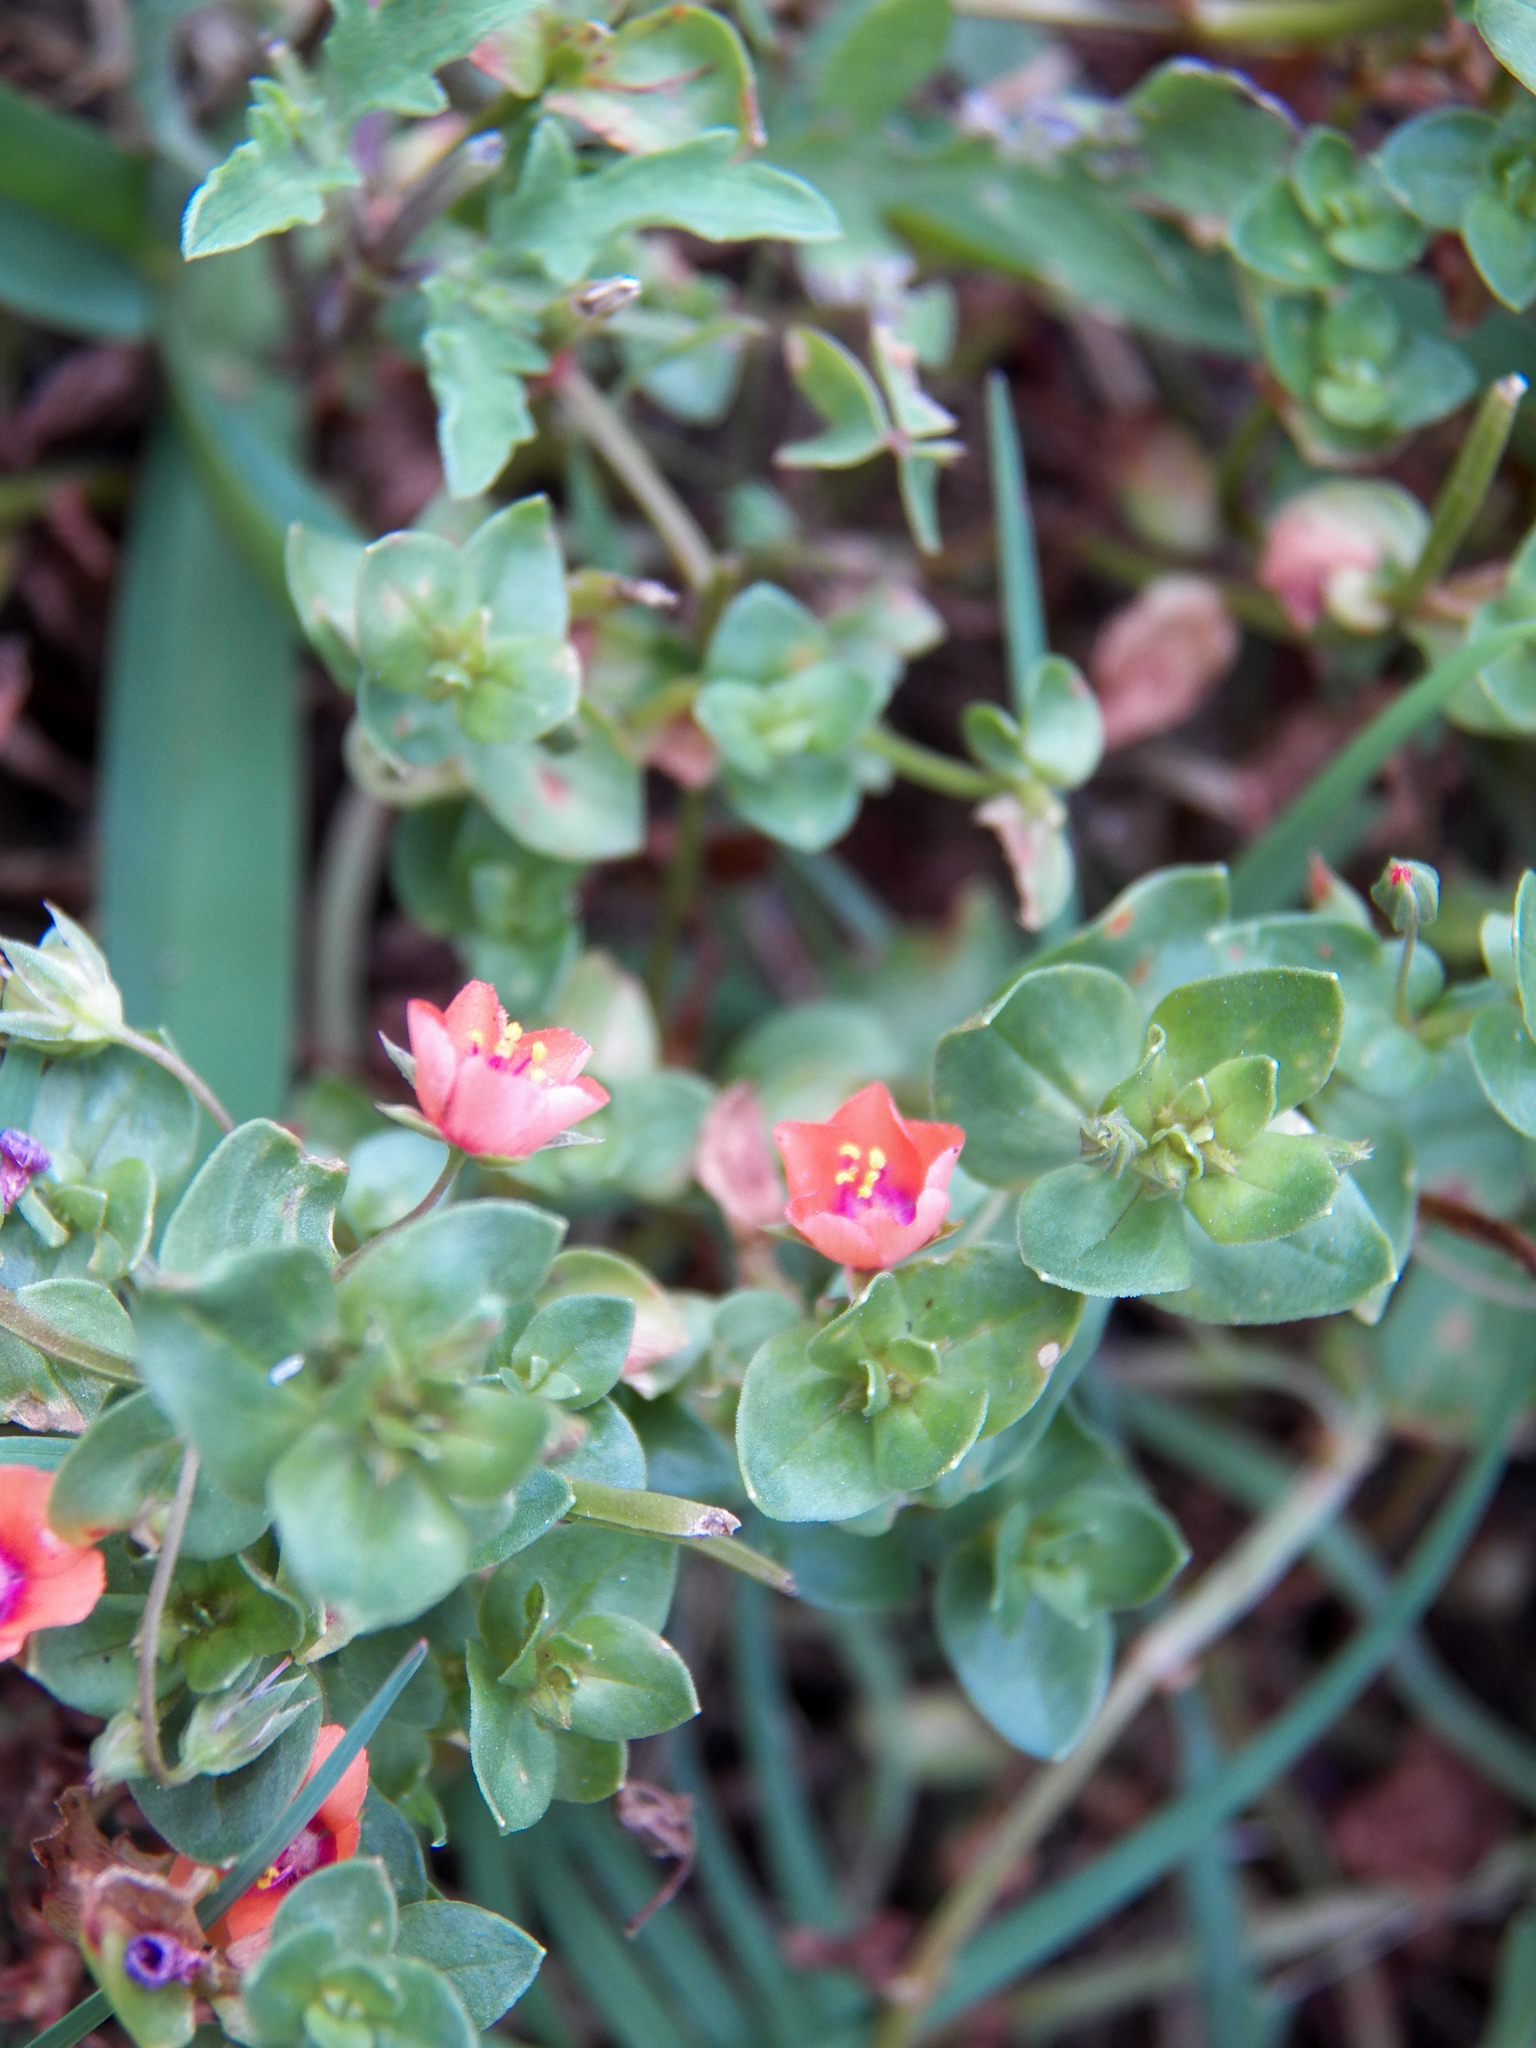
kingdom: Plantae
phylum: Tracheophyta
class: Magnoliopsida
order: Ericales
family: Primulaceae
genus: Lysimachia
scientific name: Lysimachia arvensis
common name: Scarlet pimpernel
